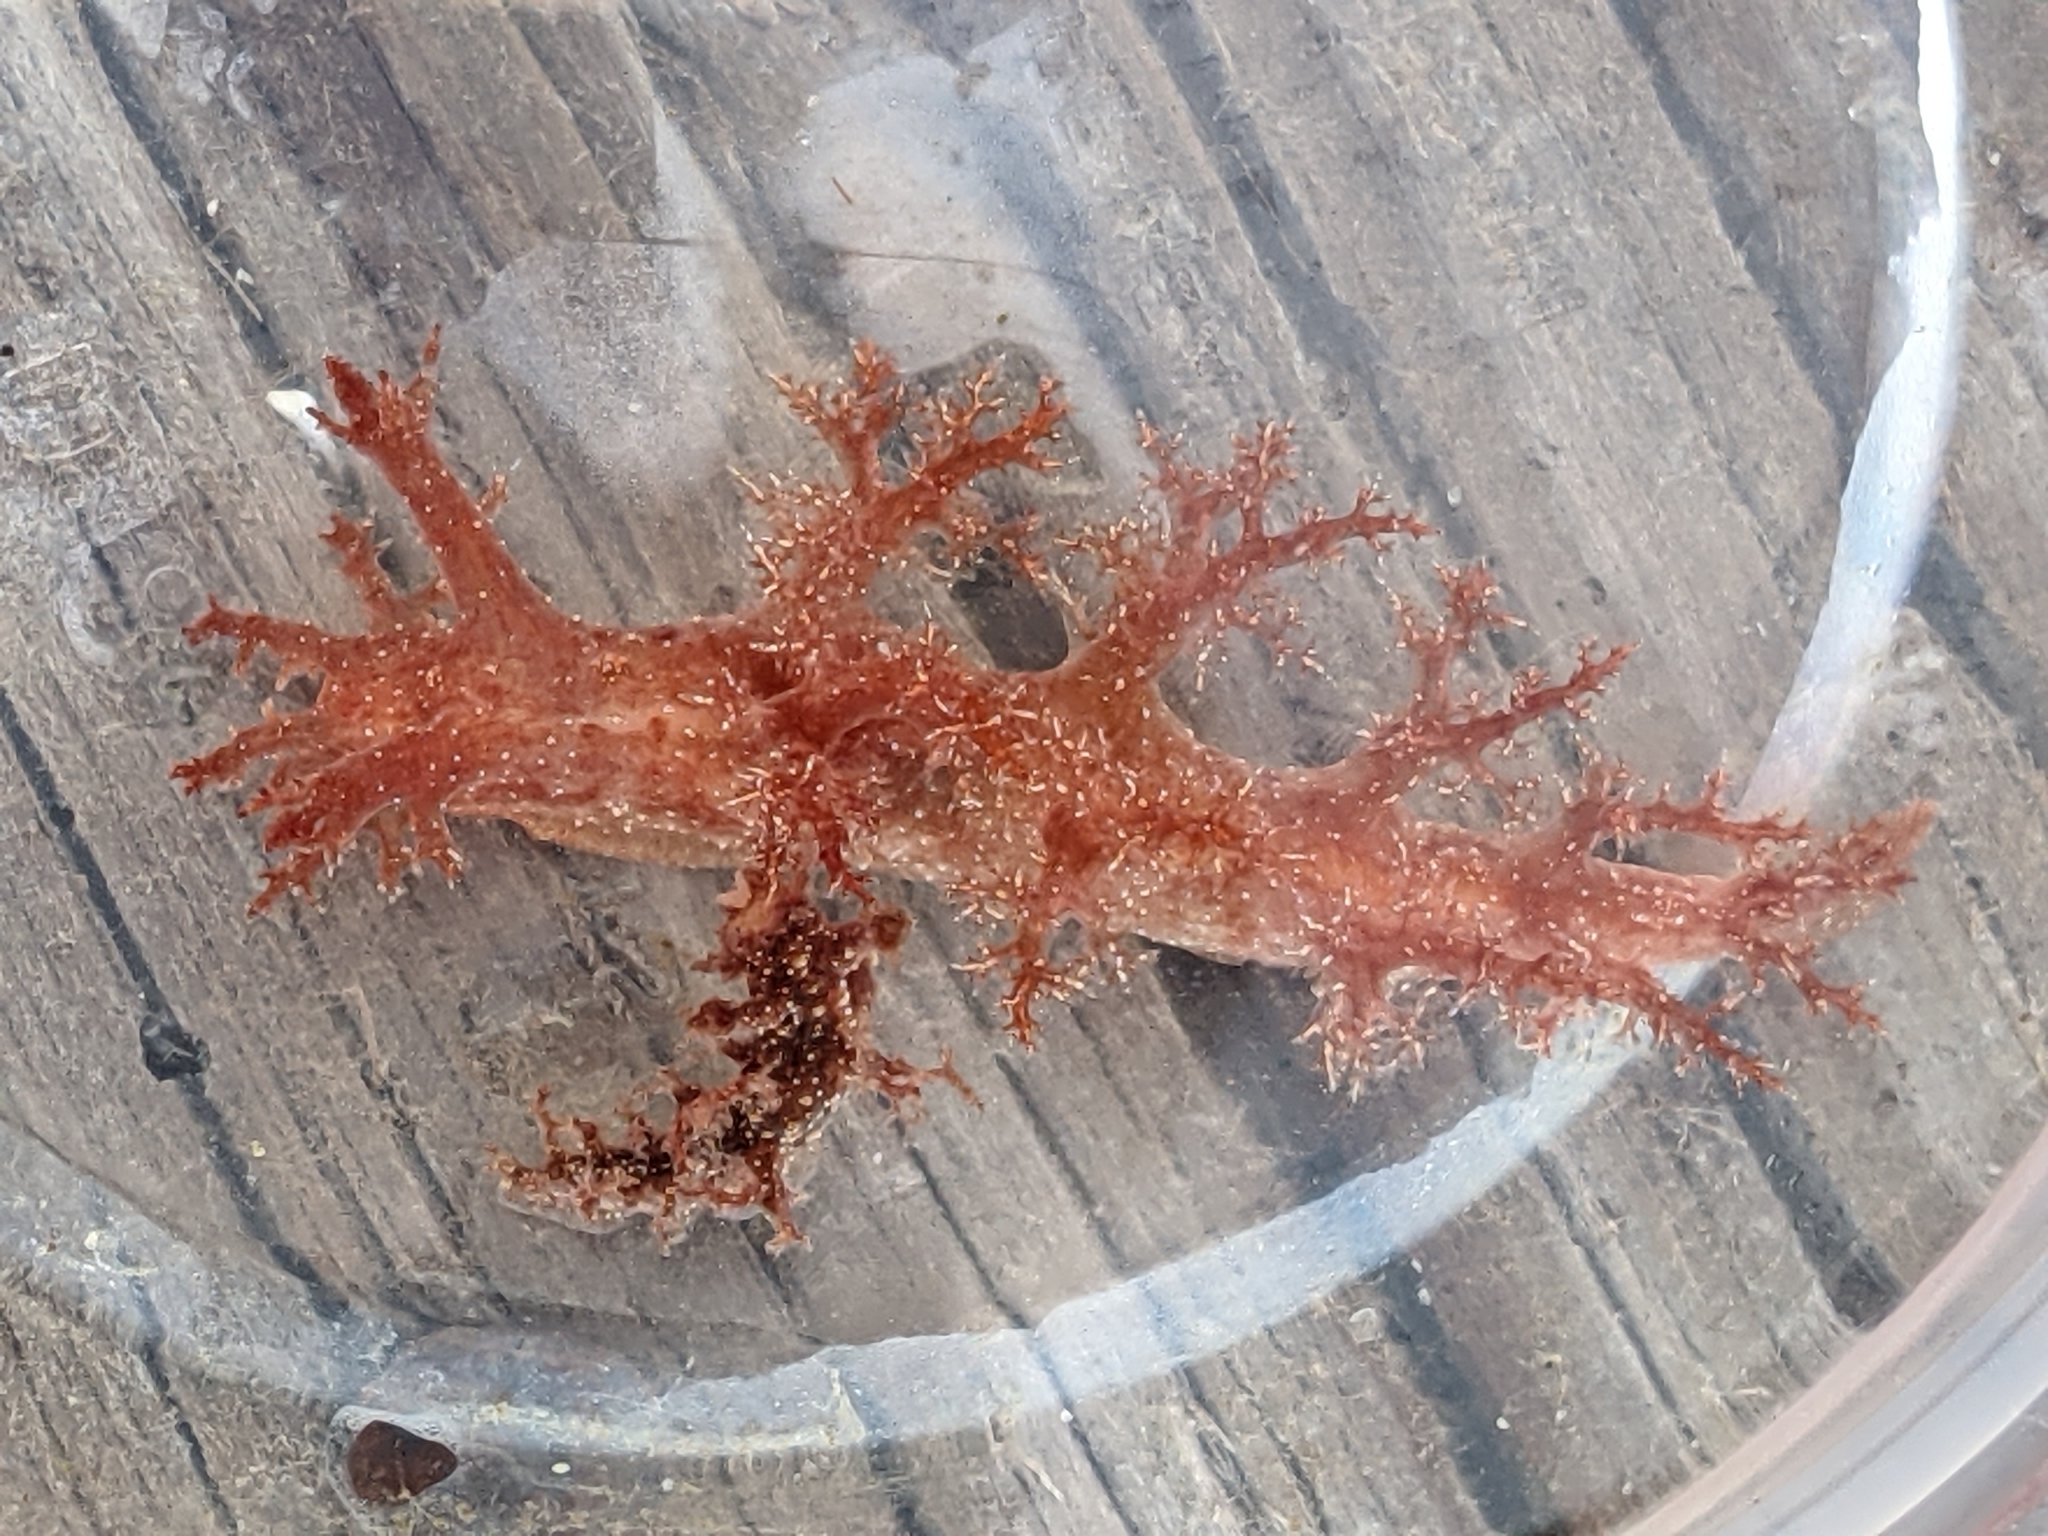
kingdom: Animalia
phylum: Mollusca
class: Gastropoda
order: Nudibranchia
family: Dendronotidae
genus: Dendronotus
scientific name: Dendronotus venustus
